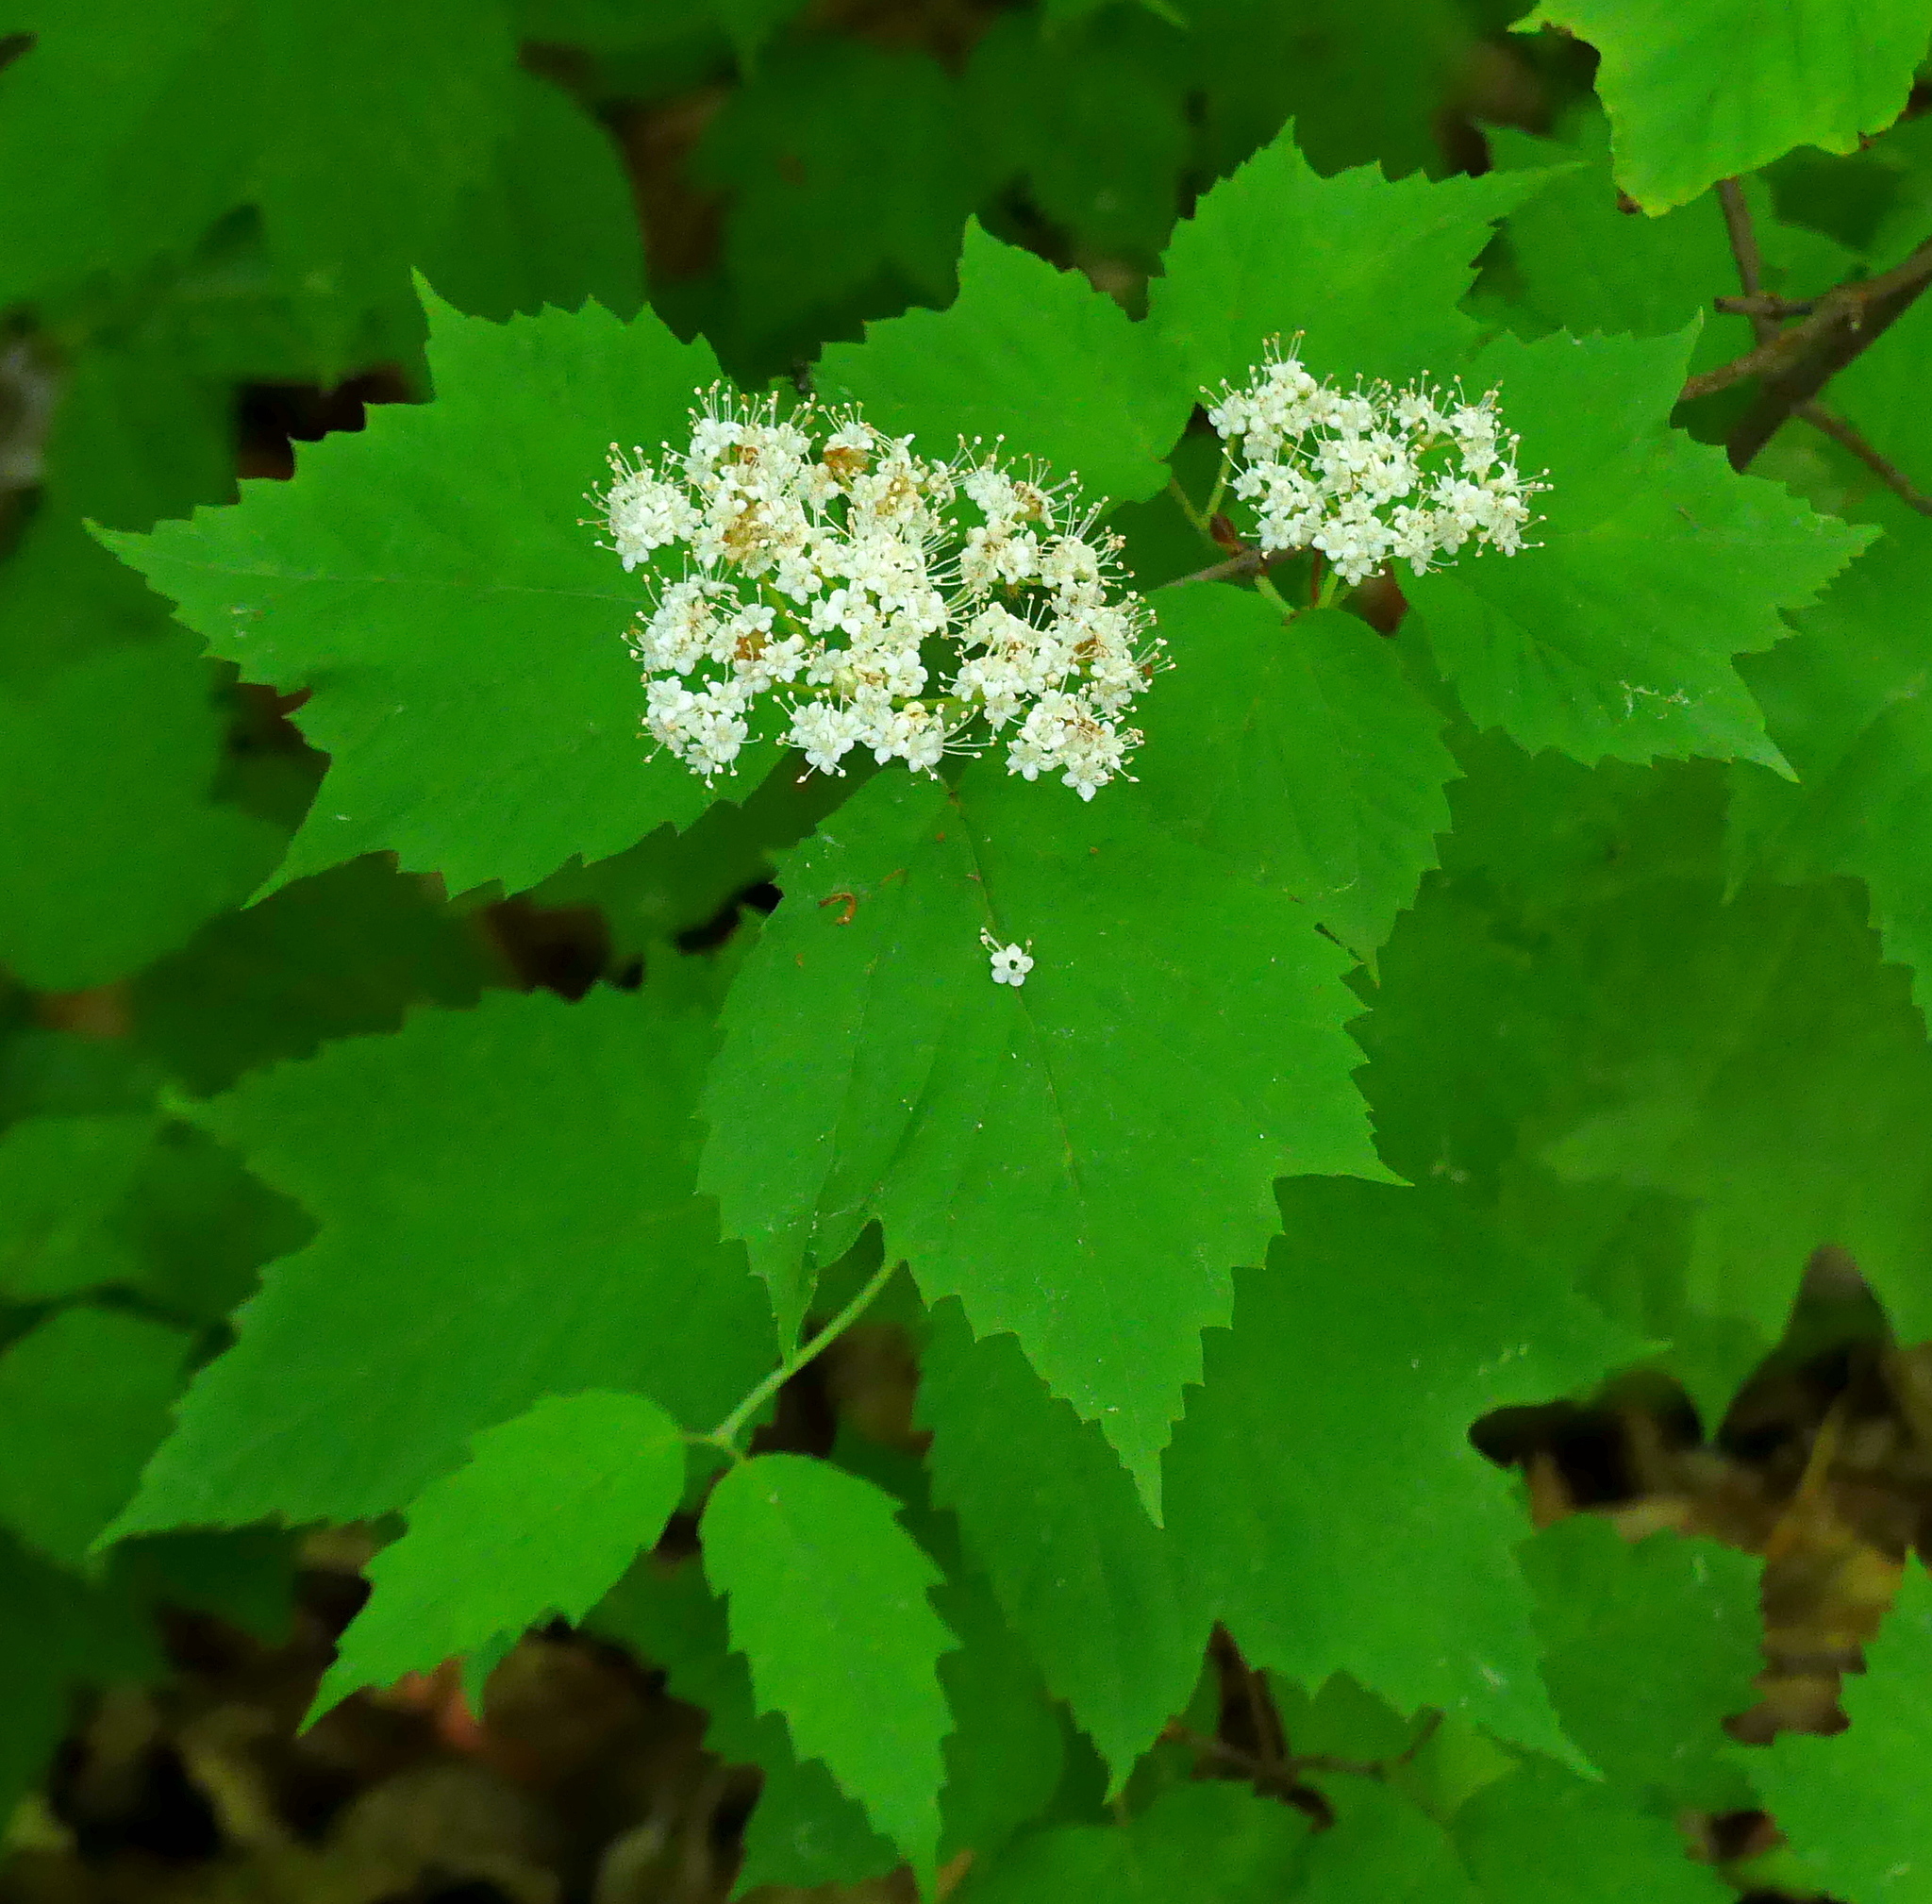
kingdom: Plantae
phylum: Tracheophyta
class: Magnoliopsida
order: Dipsacales
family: Viburnaceae
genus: Viburnum
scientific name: Viburnum acerifolium
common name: Dockmackie
